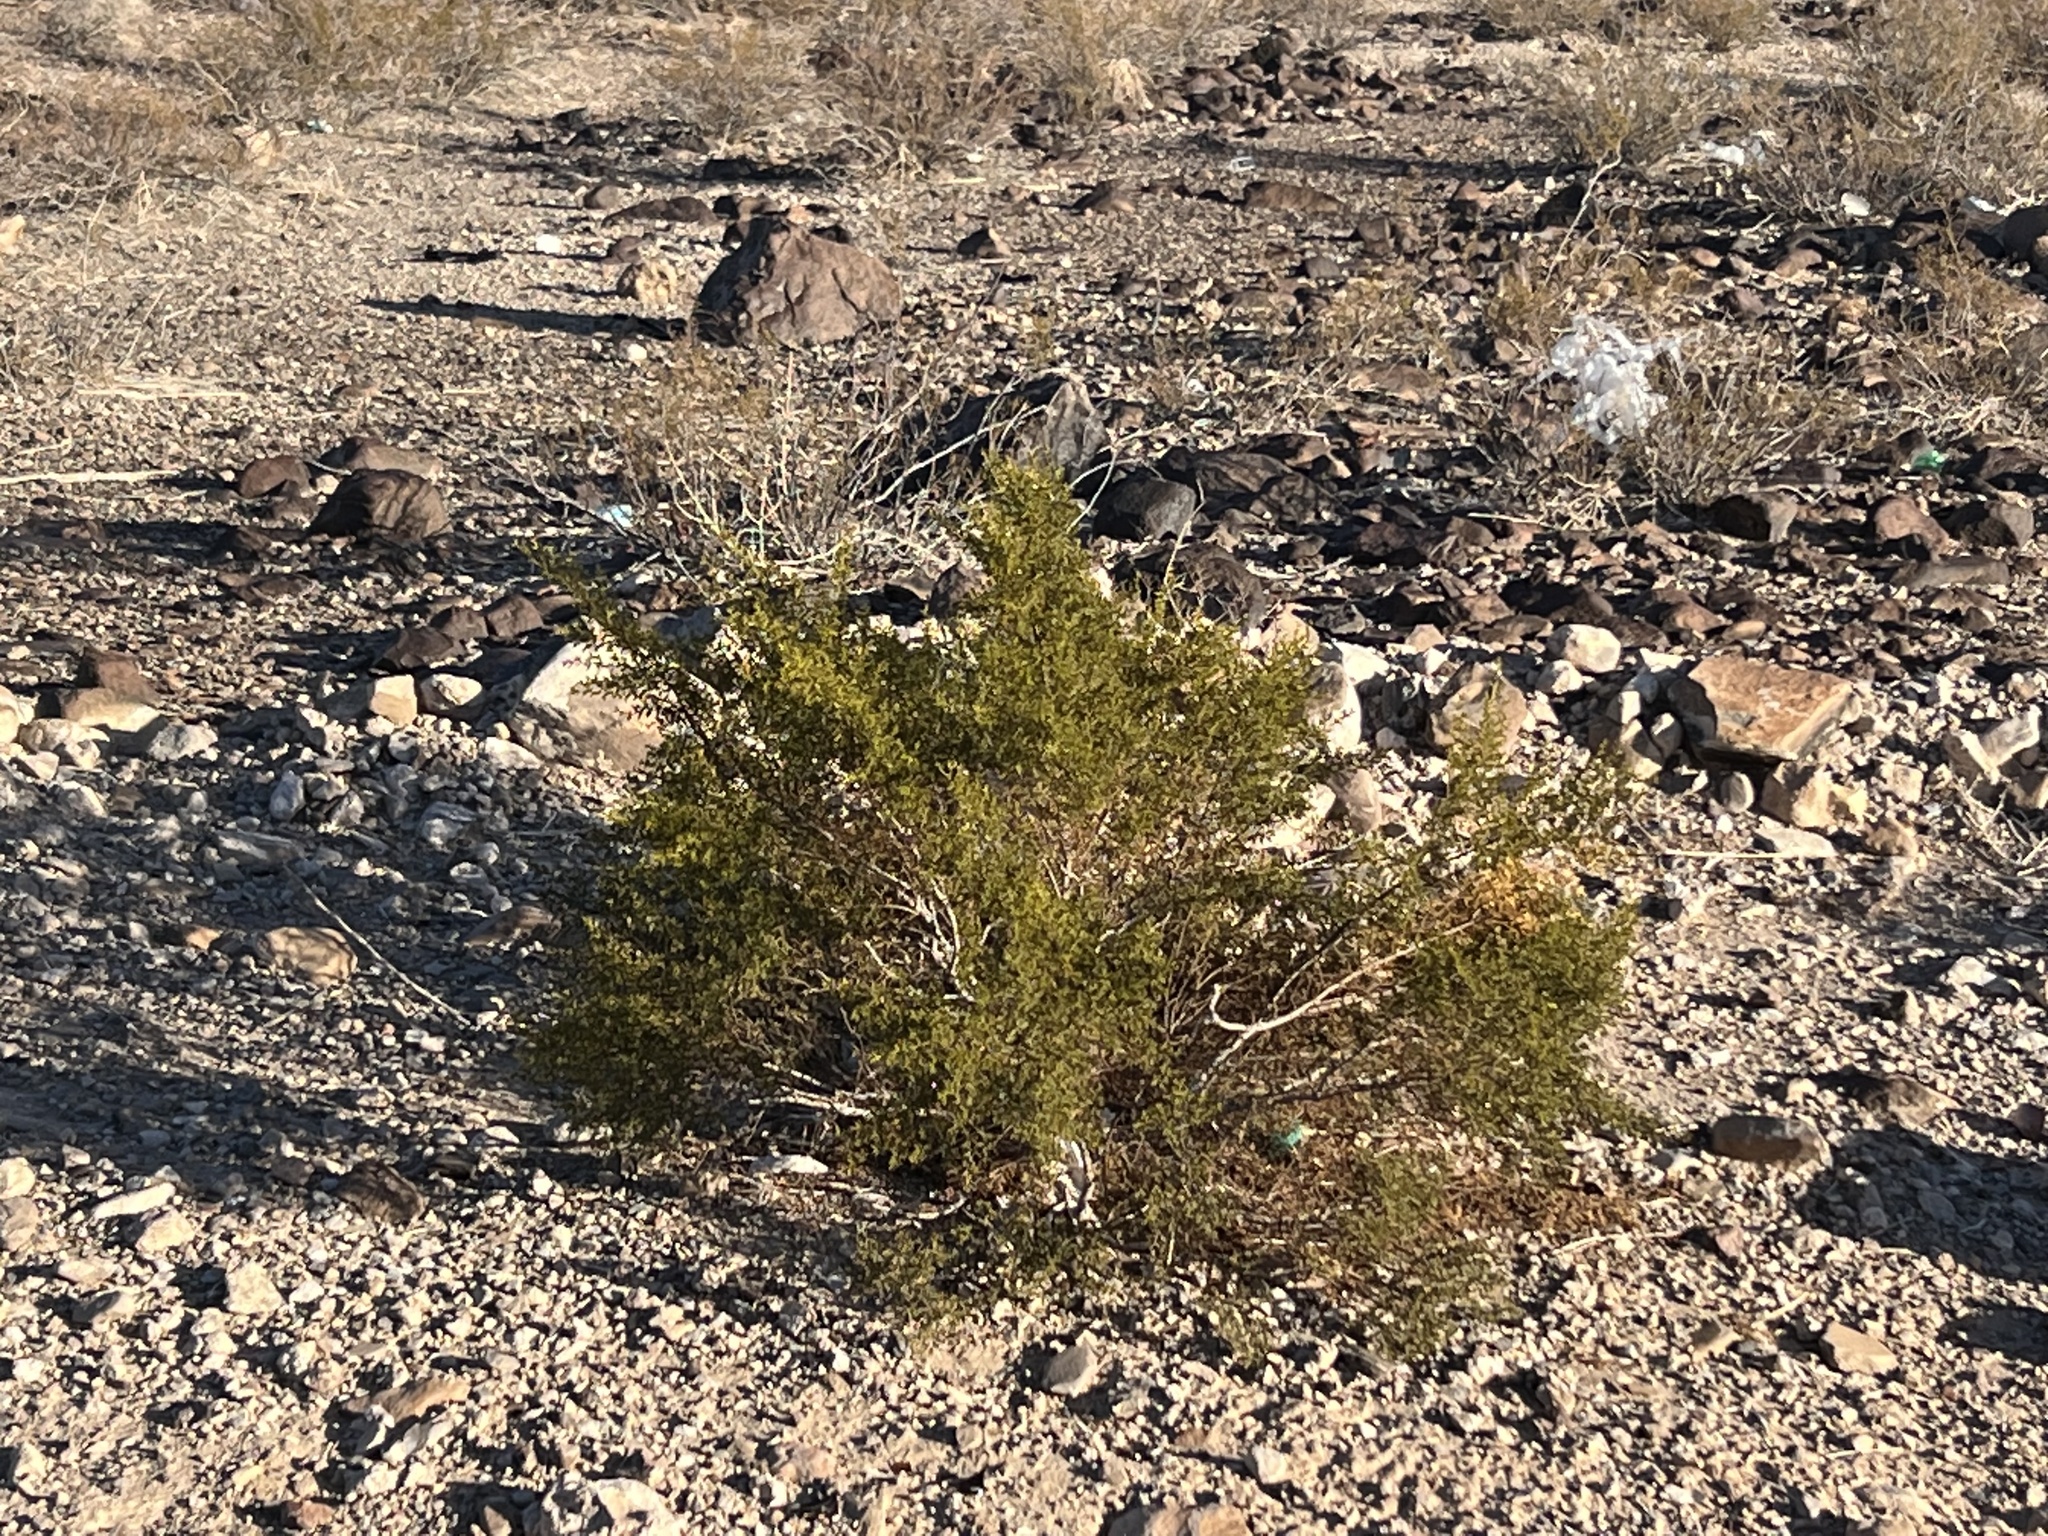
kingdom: Plantae
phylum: Tracheophyta
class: Magnoliopsida
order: Zygophyllales
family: Zygophyllaceae
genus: Larrea
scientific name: Larrea tridentata
